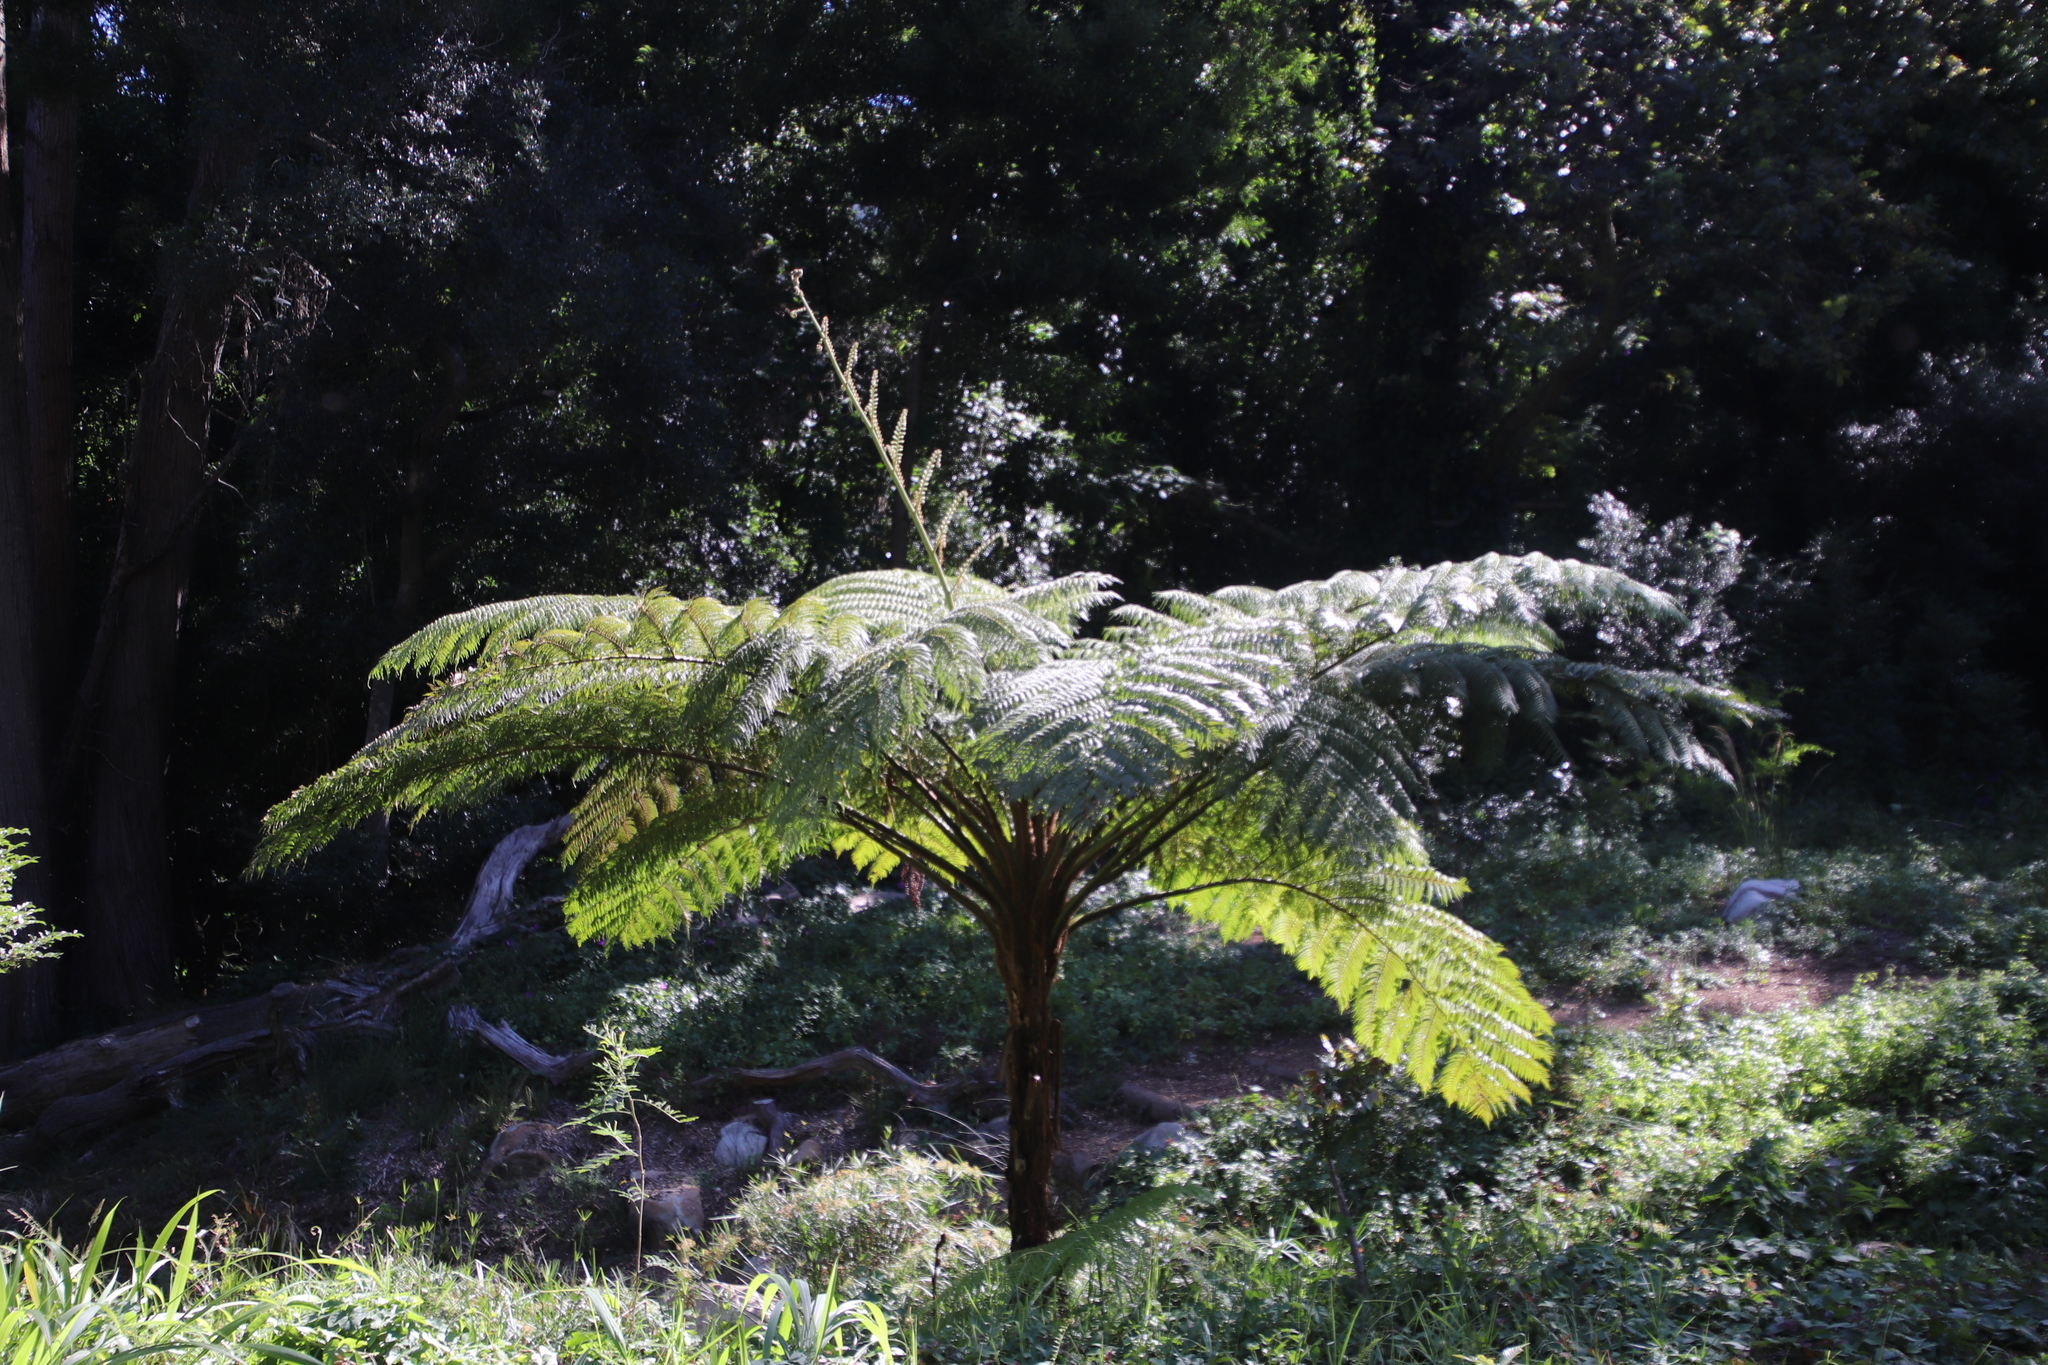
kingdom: Plantae
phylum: Tracheophyta
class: Polypodiopsida
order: Cyatheales
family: Cyatheaceae
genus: Sphaeropteris
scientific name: Sphaeropteris cooperi
